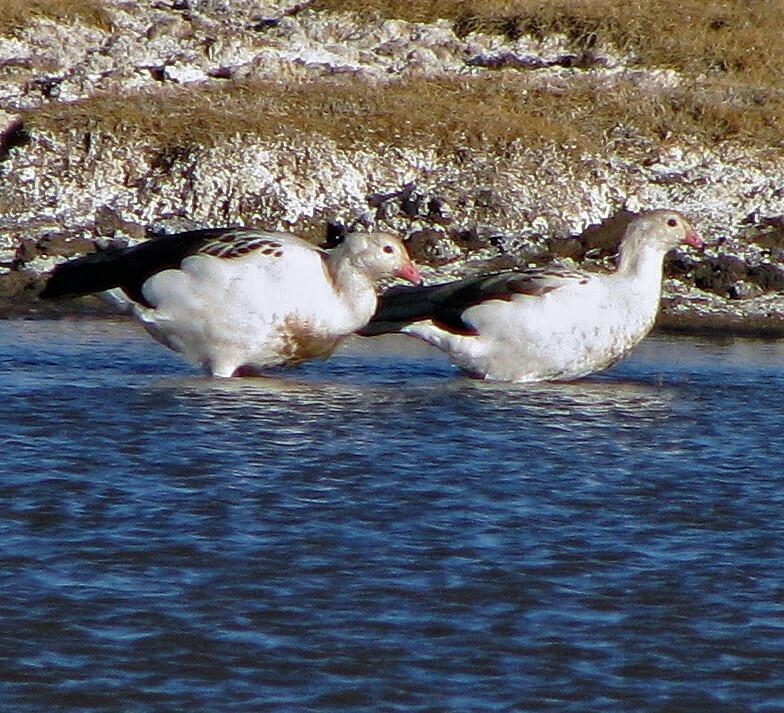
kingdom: Animalia
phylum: Chordata
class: Aves
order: Anseriformes
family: Anatidae
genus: Chloephaga
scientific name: Chloephaga melanoptera
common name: Andean goose
